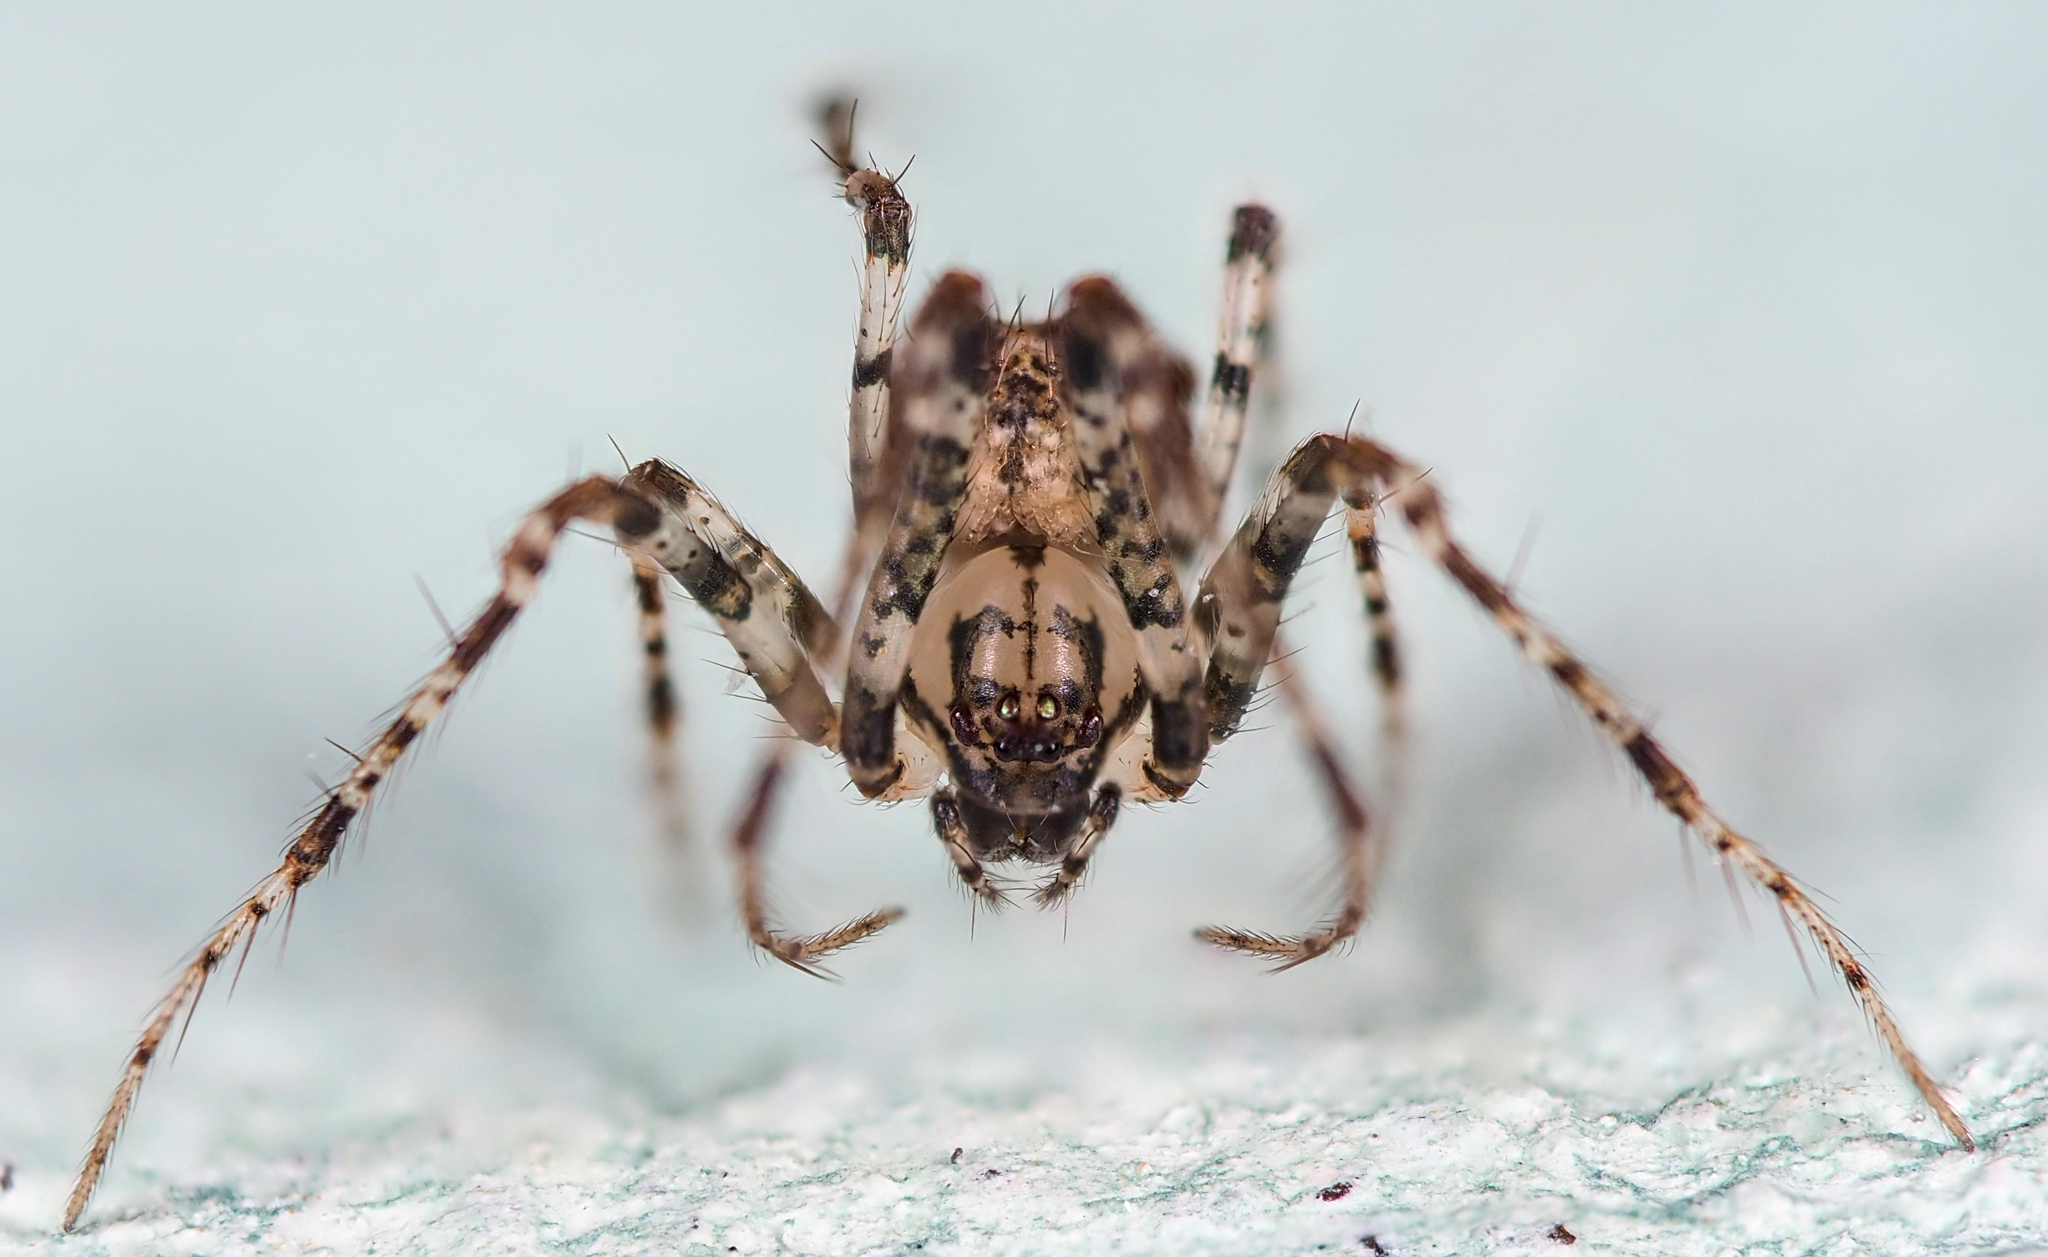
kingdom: Animalia
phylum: Arthropoda
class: Arachnida
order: Araneae
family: Mimetidae
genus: Ero
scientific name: Ero aphana
